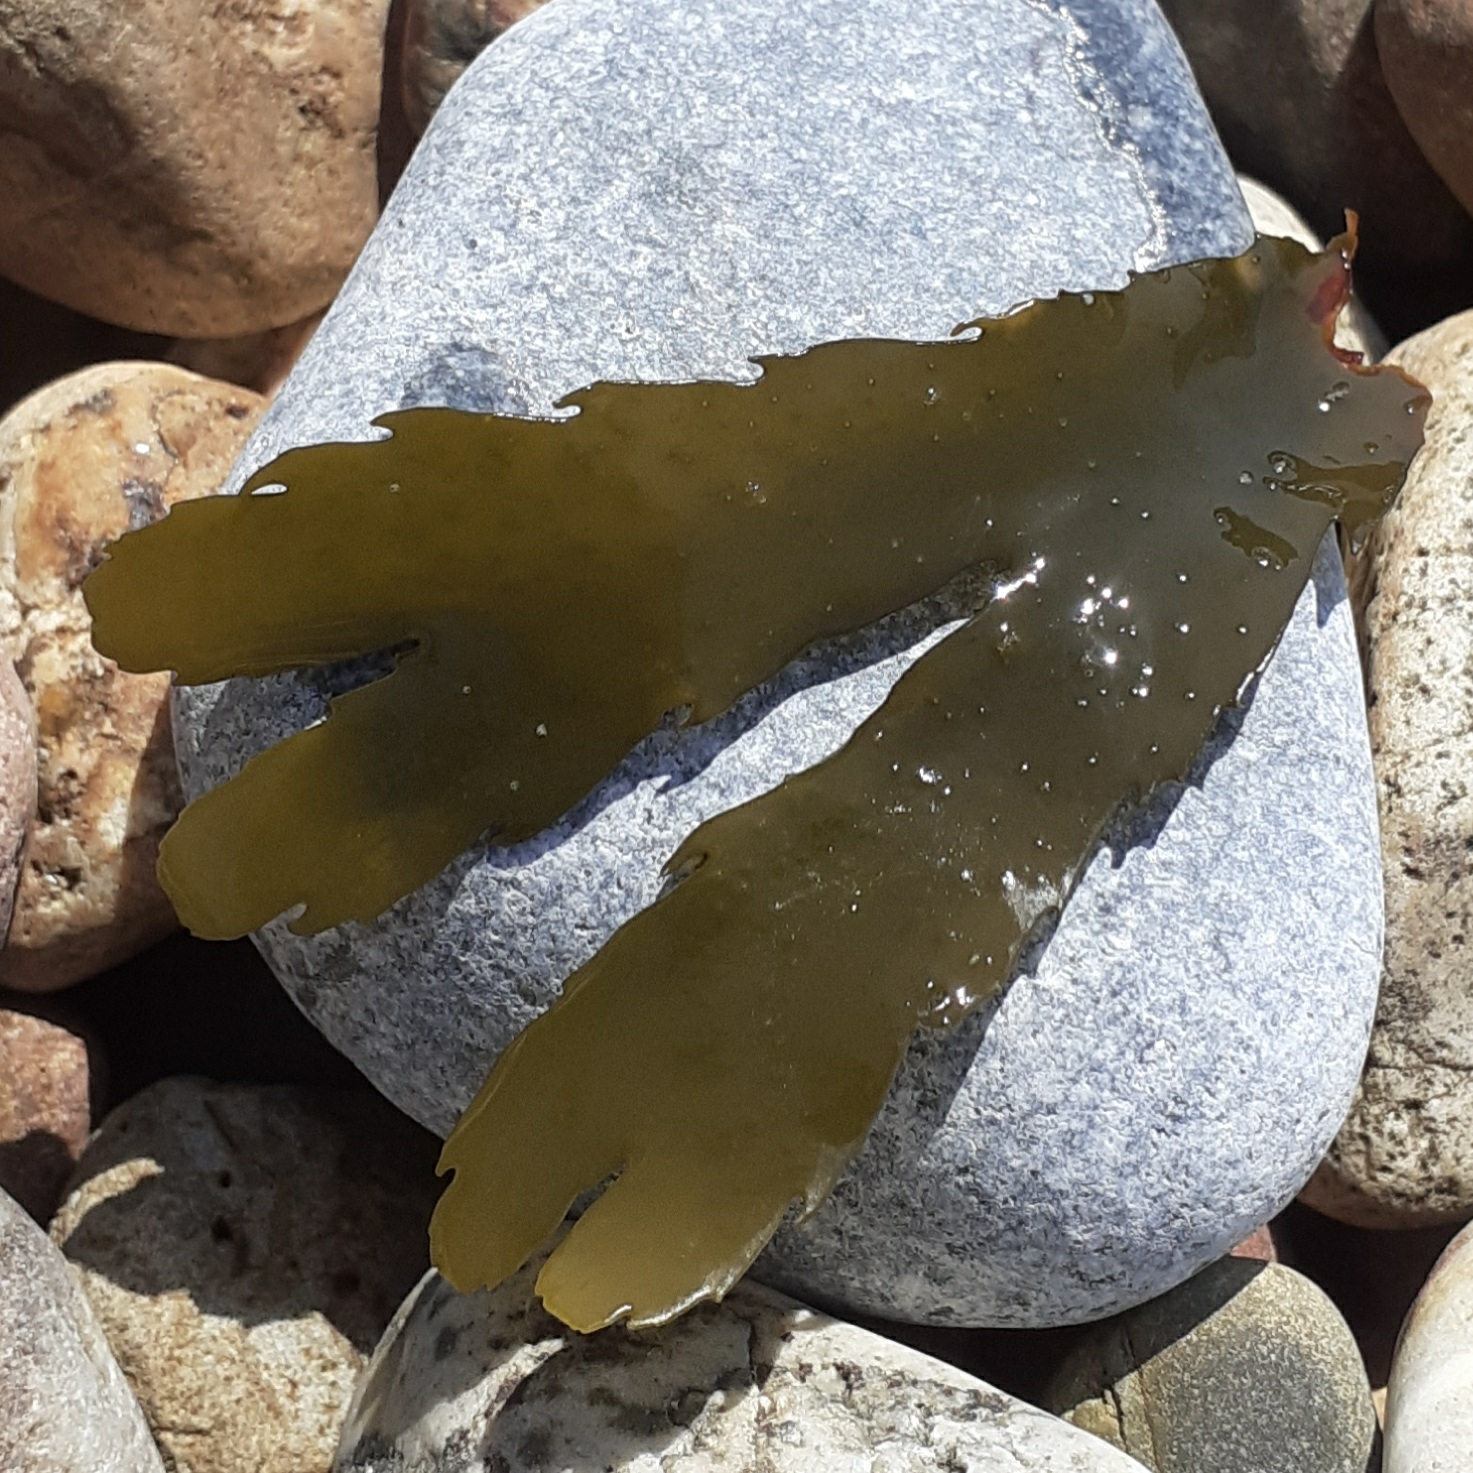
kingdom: Chromista
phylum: Ochrophyta
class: Phaeophyceae
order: Fucales
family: Fucaceae
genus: Fucus
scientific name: Fucus serratus
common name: Toothed wrack
